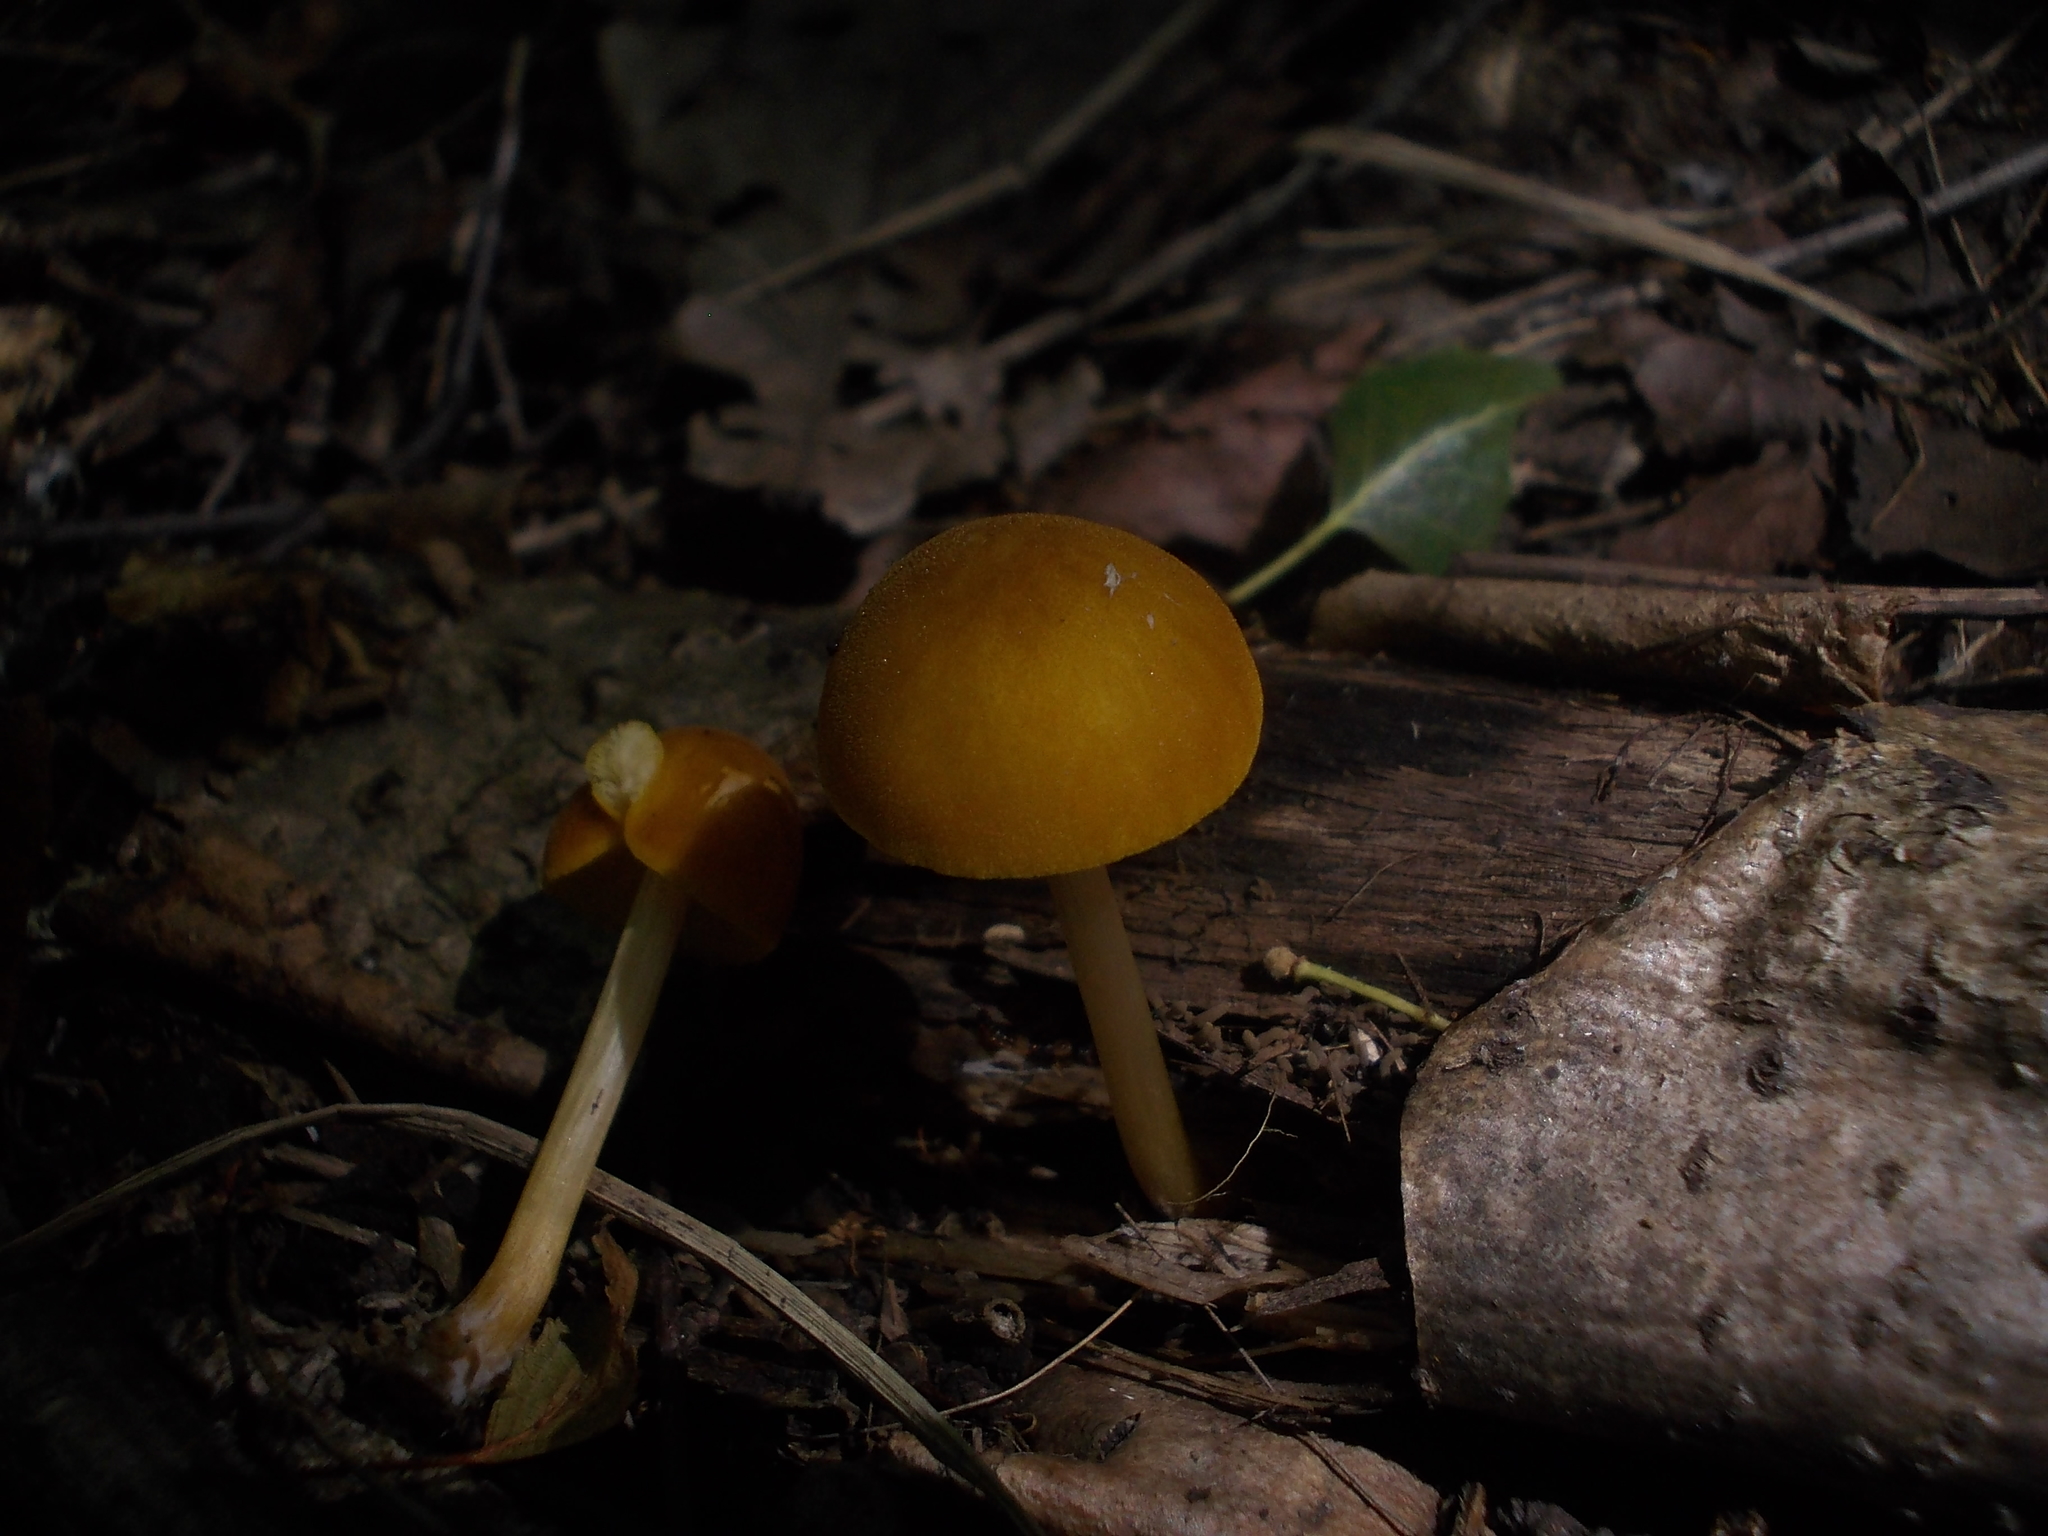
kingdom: Fungi
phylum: Basidiomycota
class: Agaricomycetes
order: Agaricales
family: Pluteaceae
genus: Pluteus
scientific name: Pluteus leoninus
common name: Lion shield
